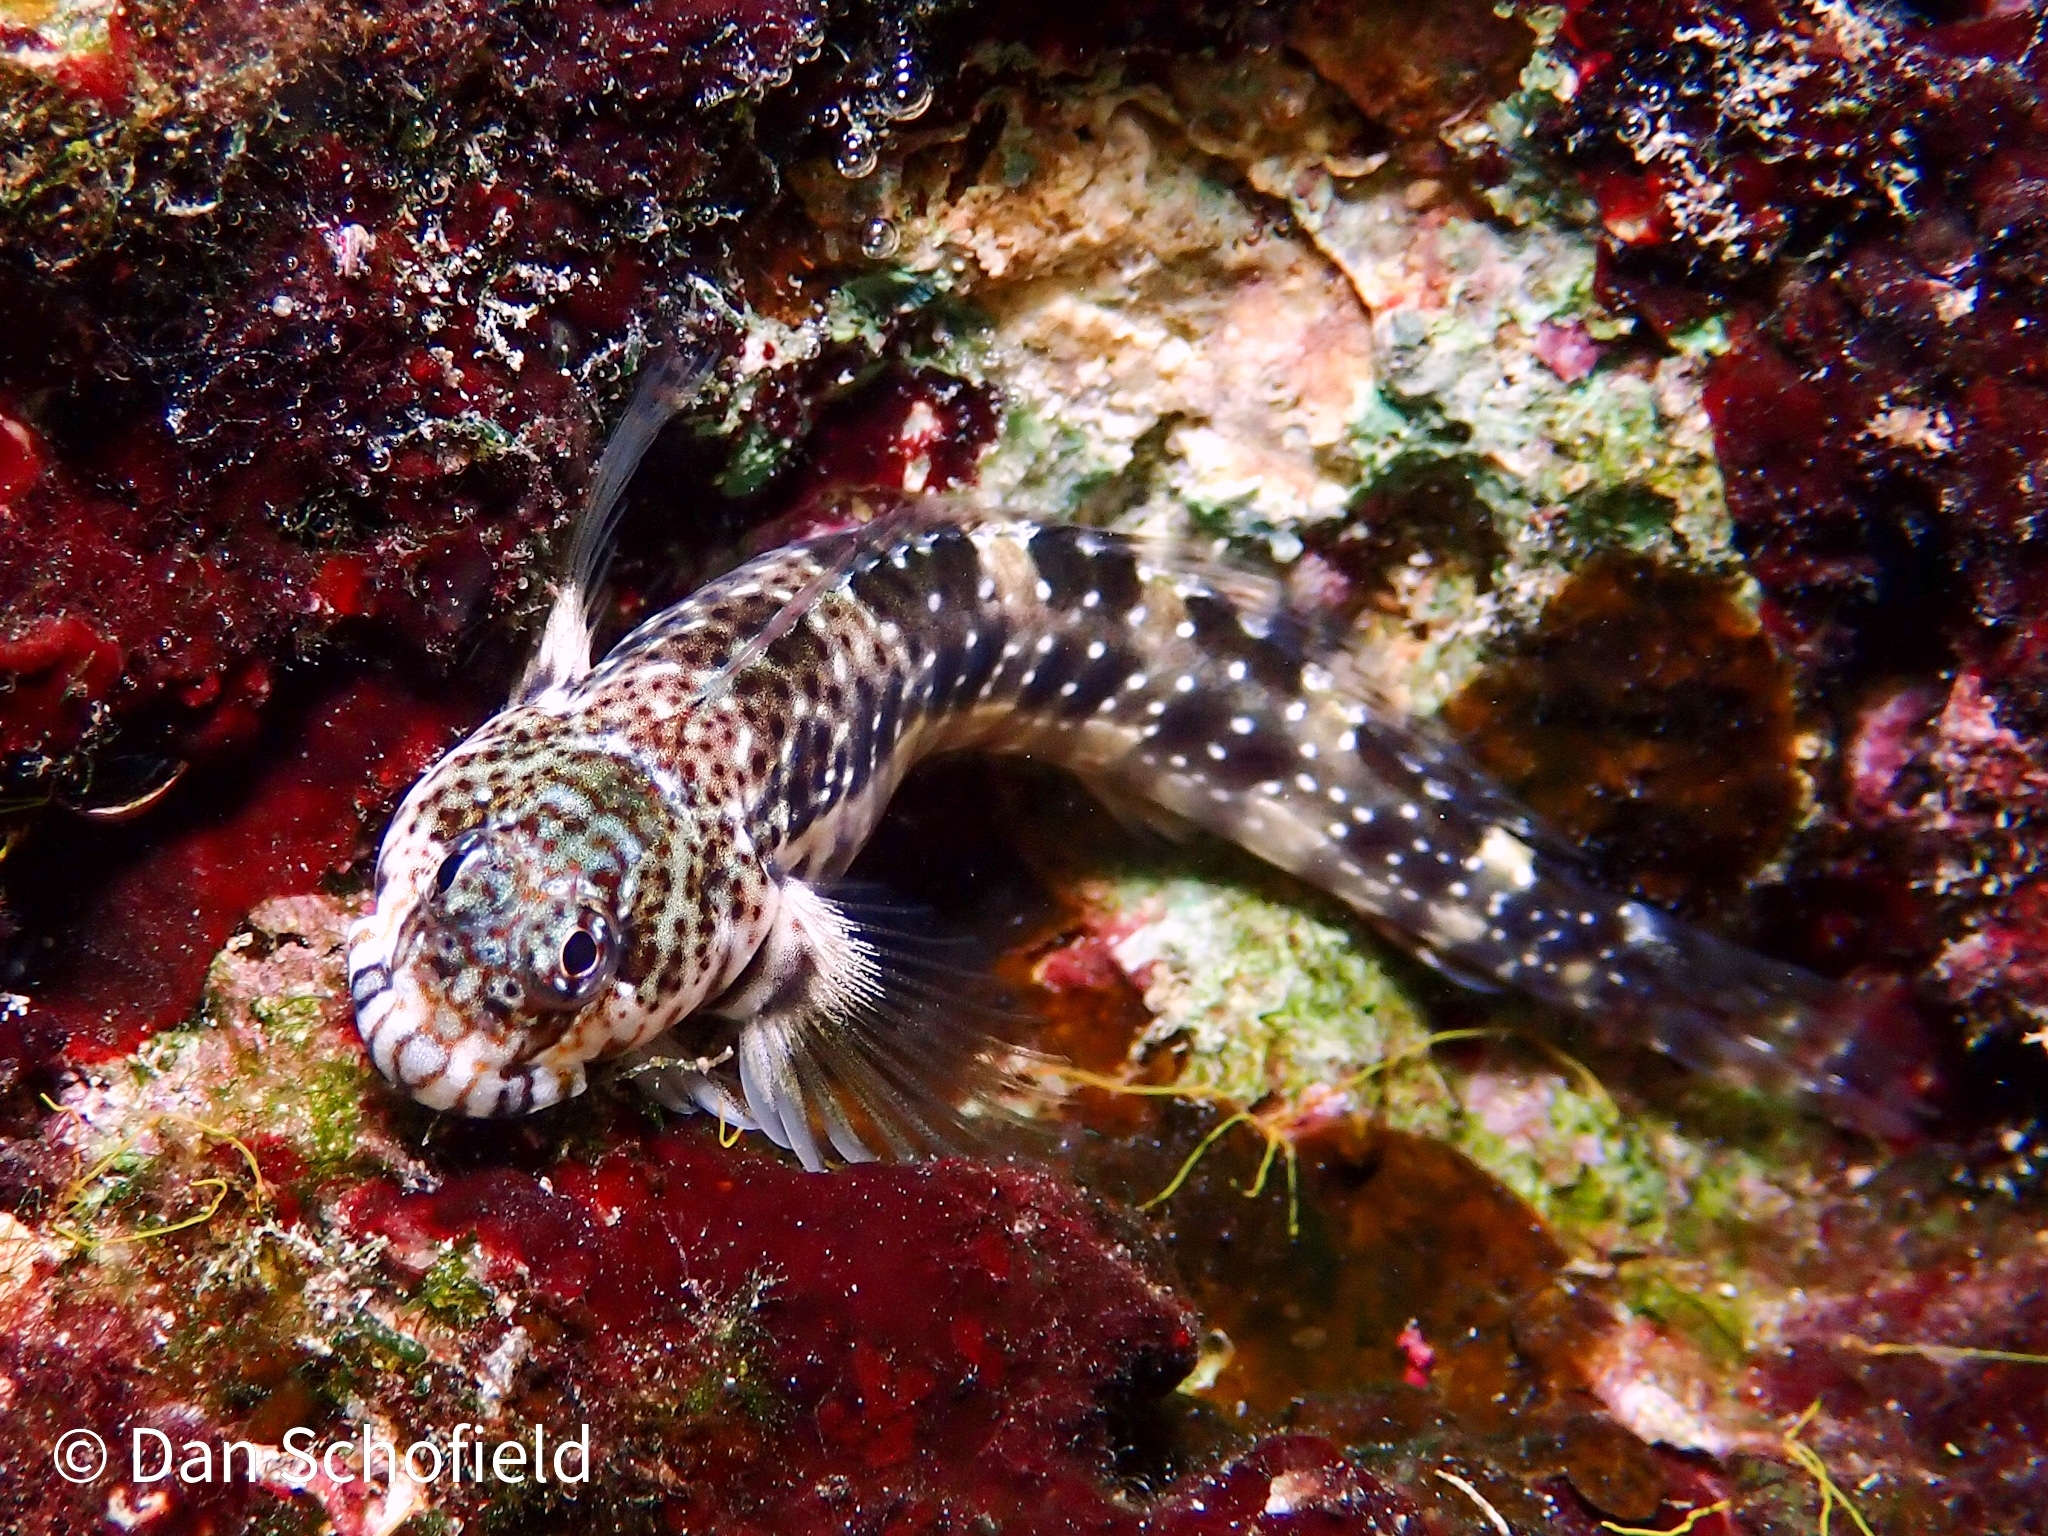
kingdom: Animalia
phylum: Chordata
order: Perciformes
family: Blenniidae
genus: Entomacrodus
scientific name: Entomacrodus nigricans
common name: Pearl blenny
